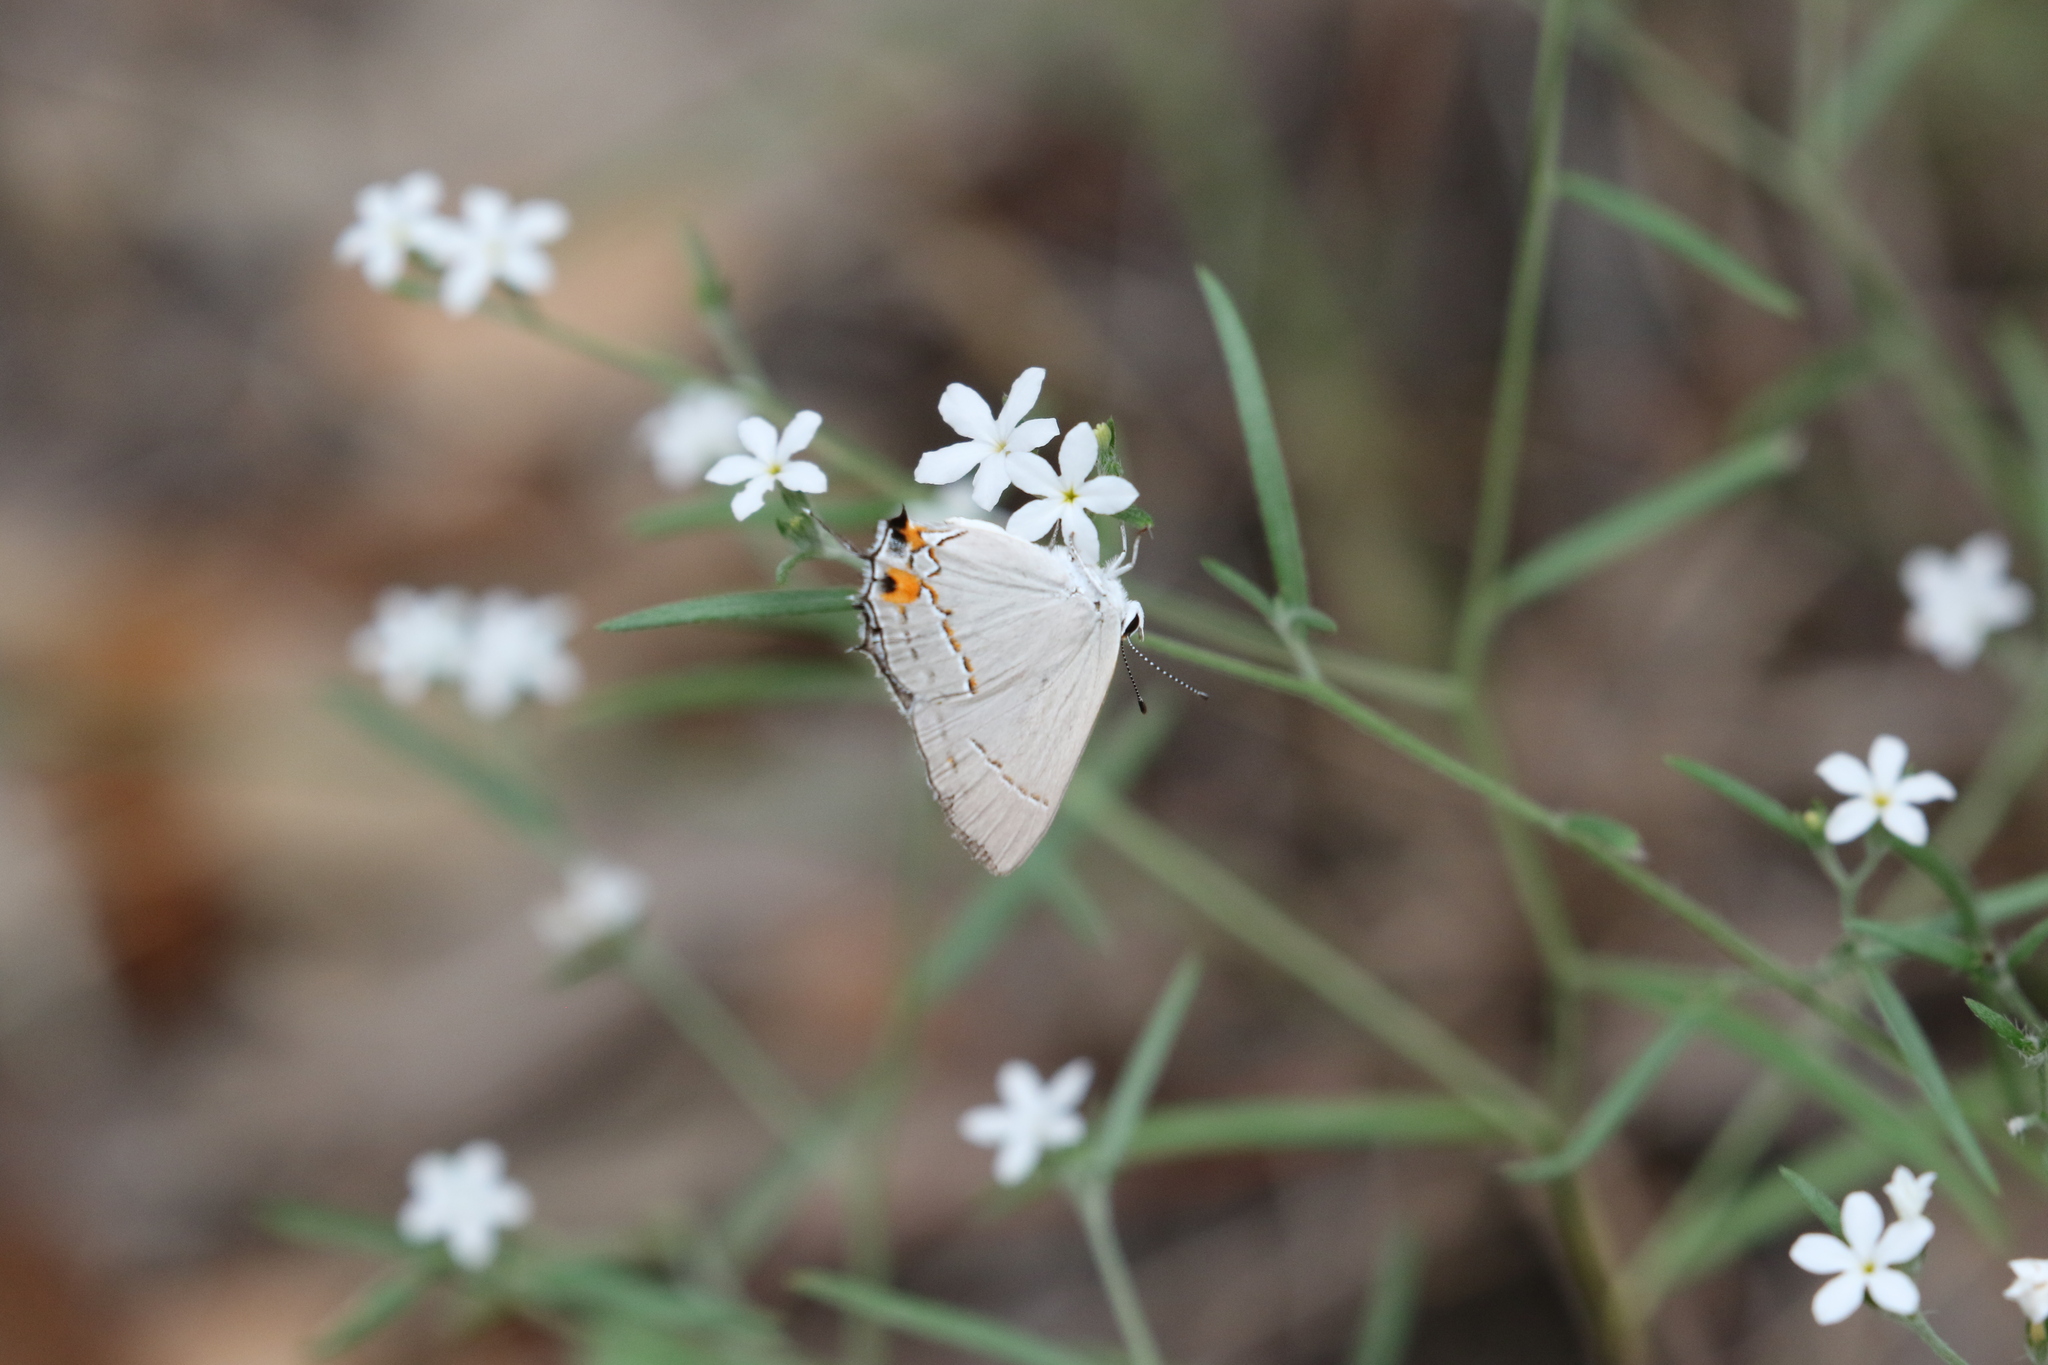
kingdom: Plantae
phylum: Tracheophyta
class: Magnoliopsida
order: Boraginales
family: Heliotropiaceae
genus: Euploca
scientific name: Euploca tenella
